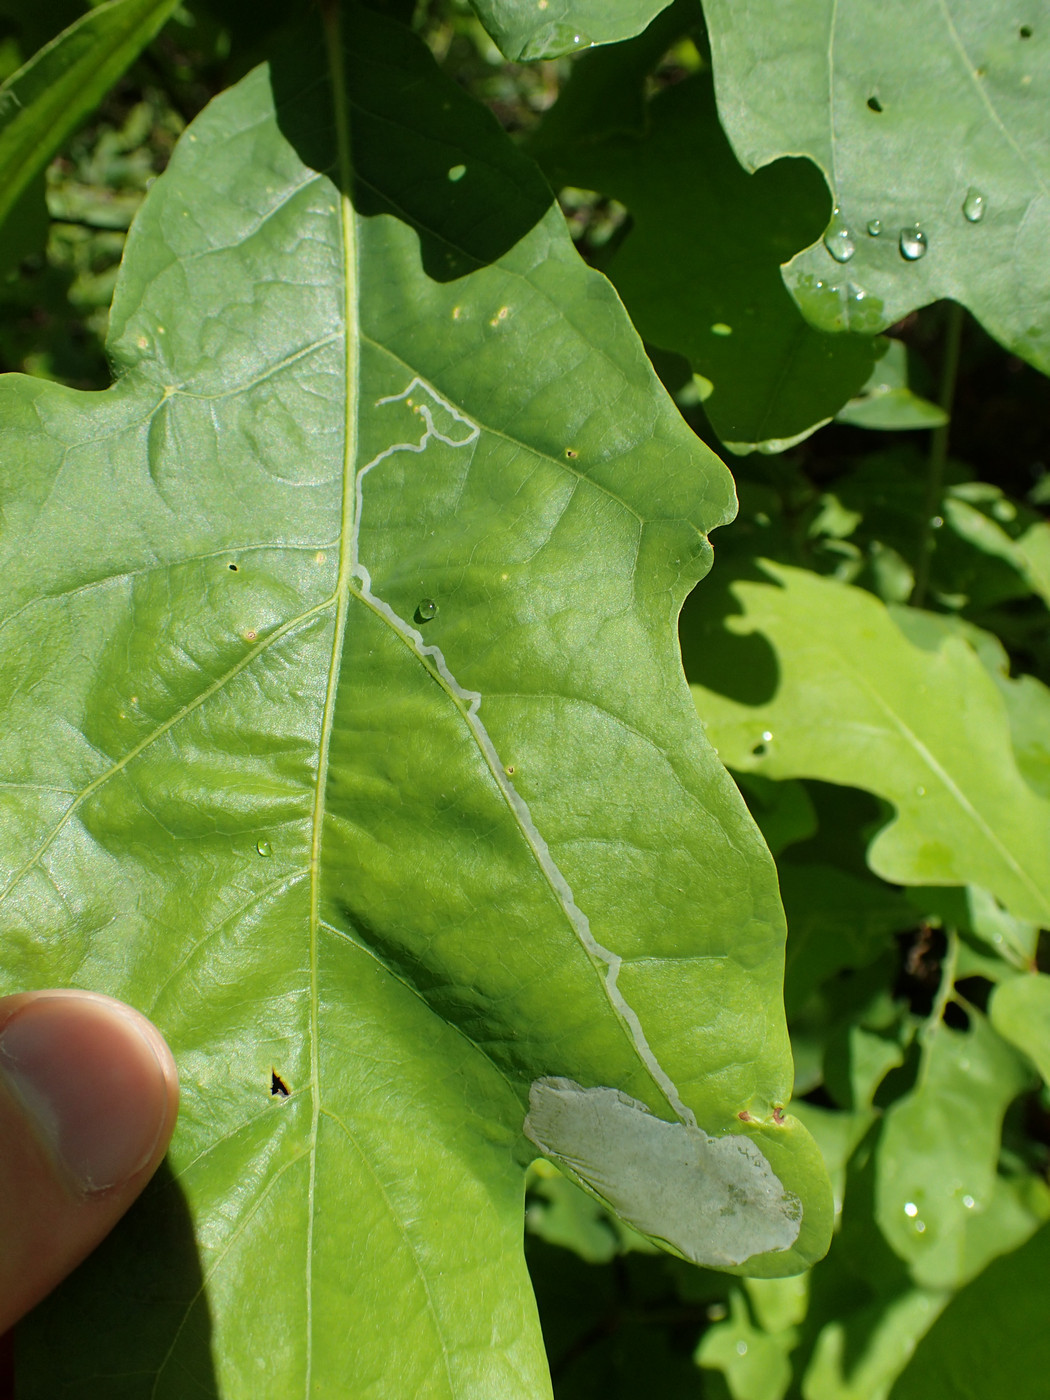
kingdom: Animalia
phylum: Arthropoda
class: Insecta
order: Lepidoptera
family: Gracillariidae
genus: Cryptolectica
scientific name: Cryptolectica
